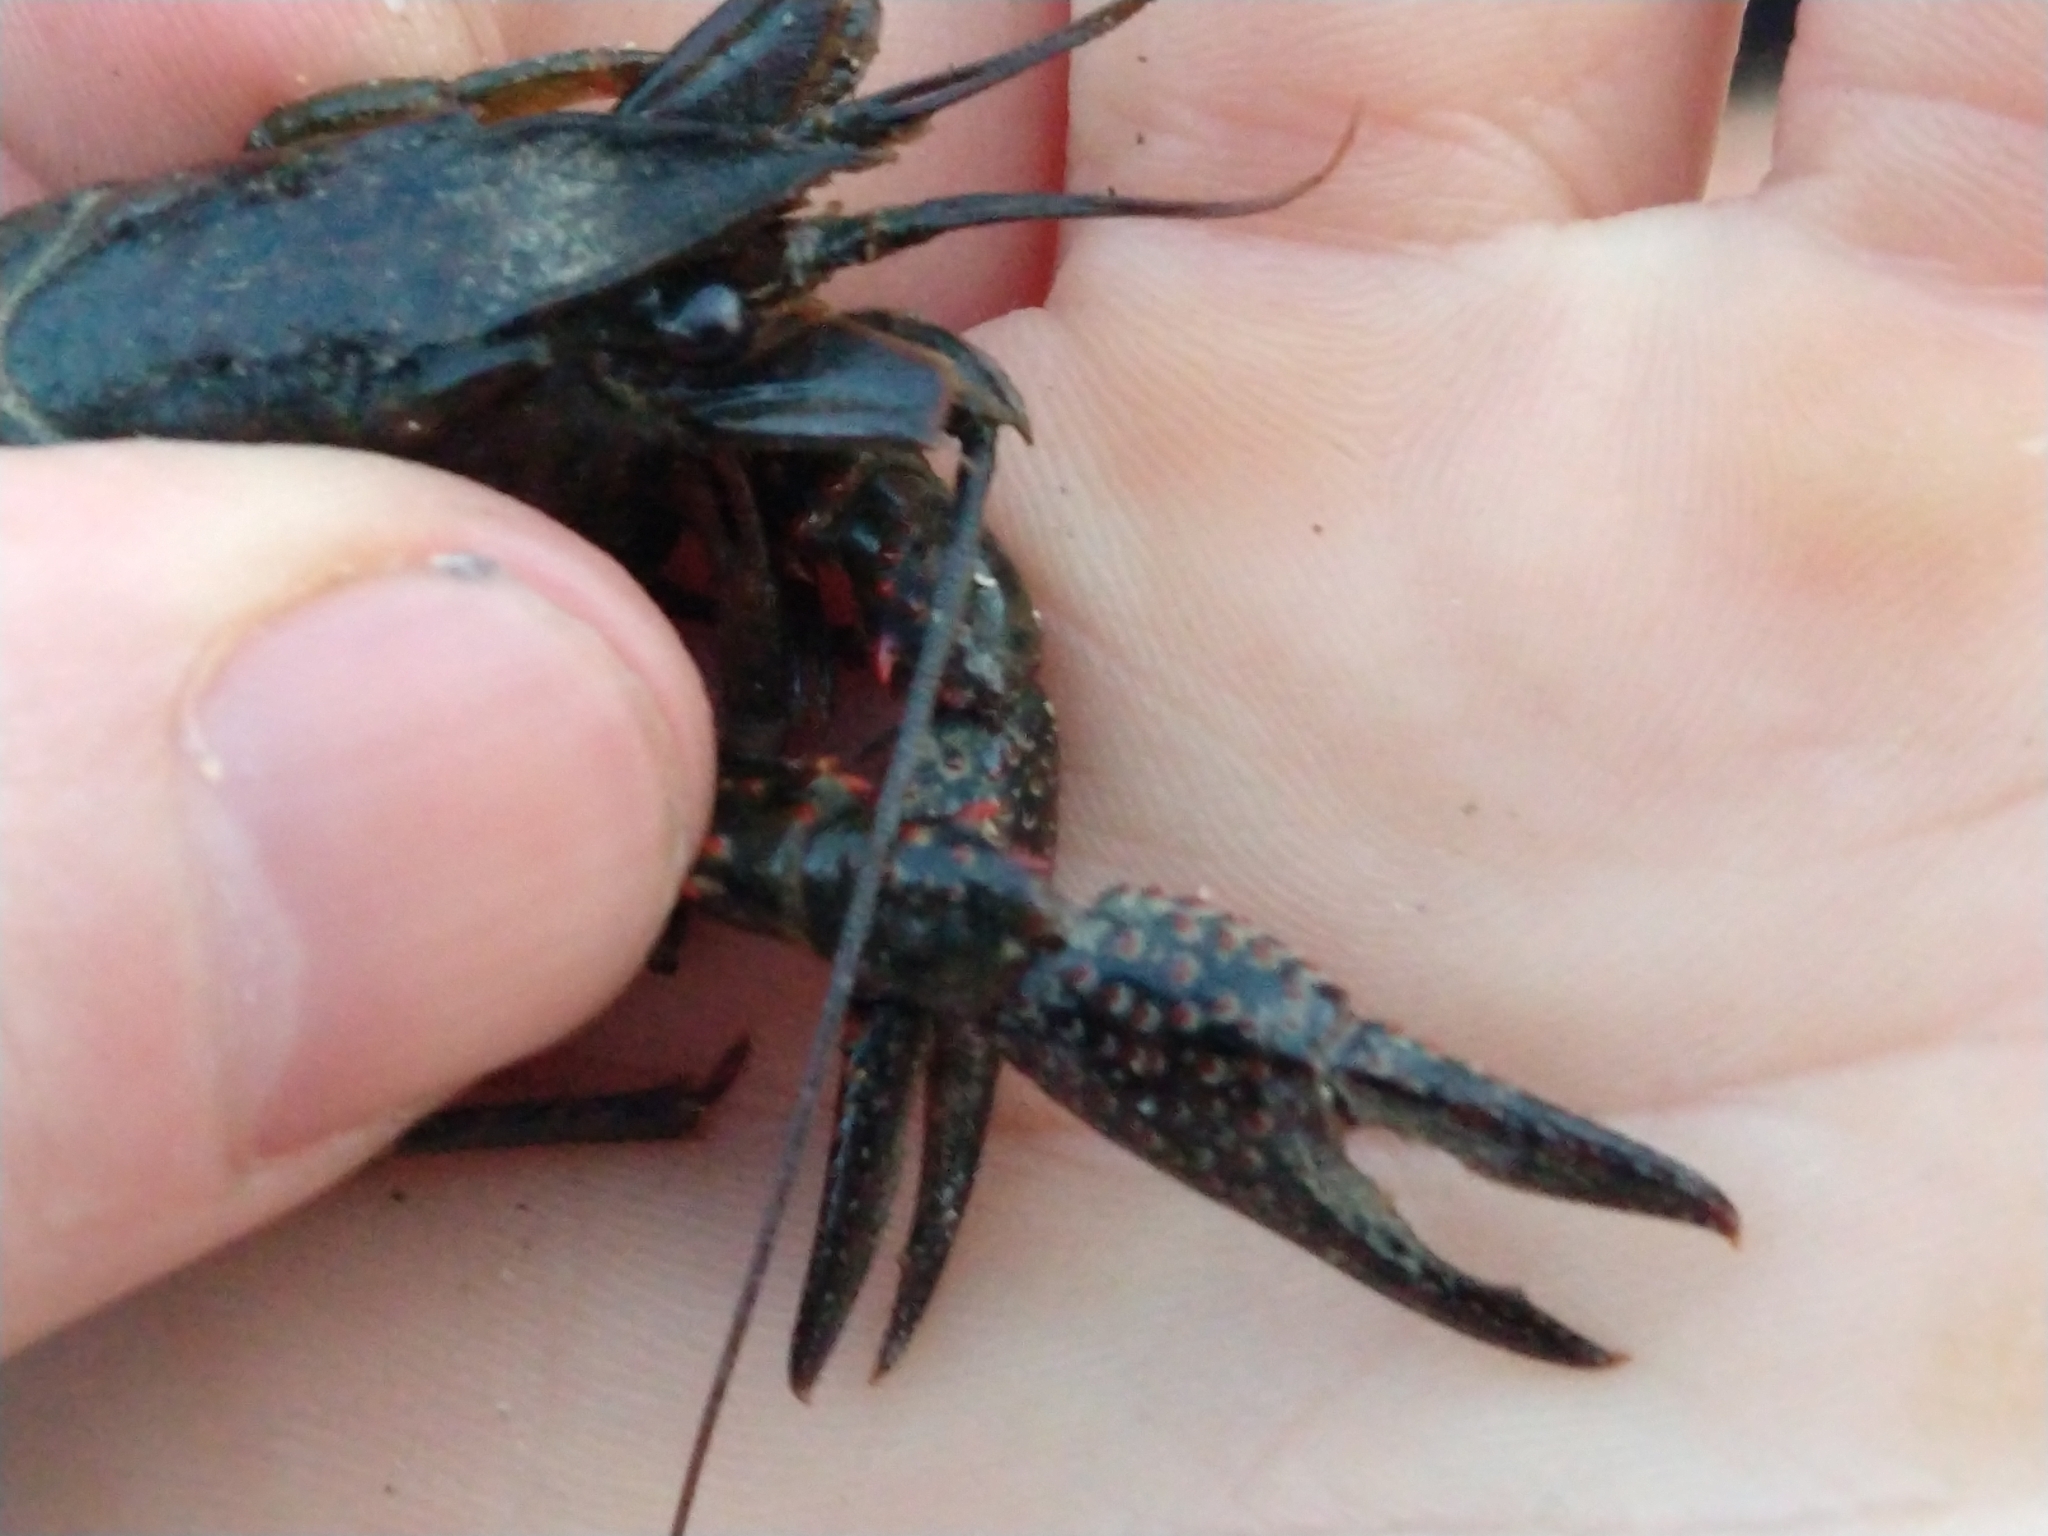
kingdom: Animalia
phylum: Arthropoda
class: Malacostraca
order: Decapoda
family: Cambaridae
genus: Procambarus
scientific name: Procambarus clarkii
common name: Red swamp crayfish
